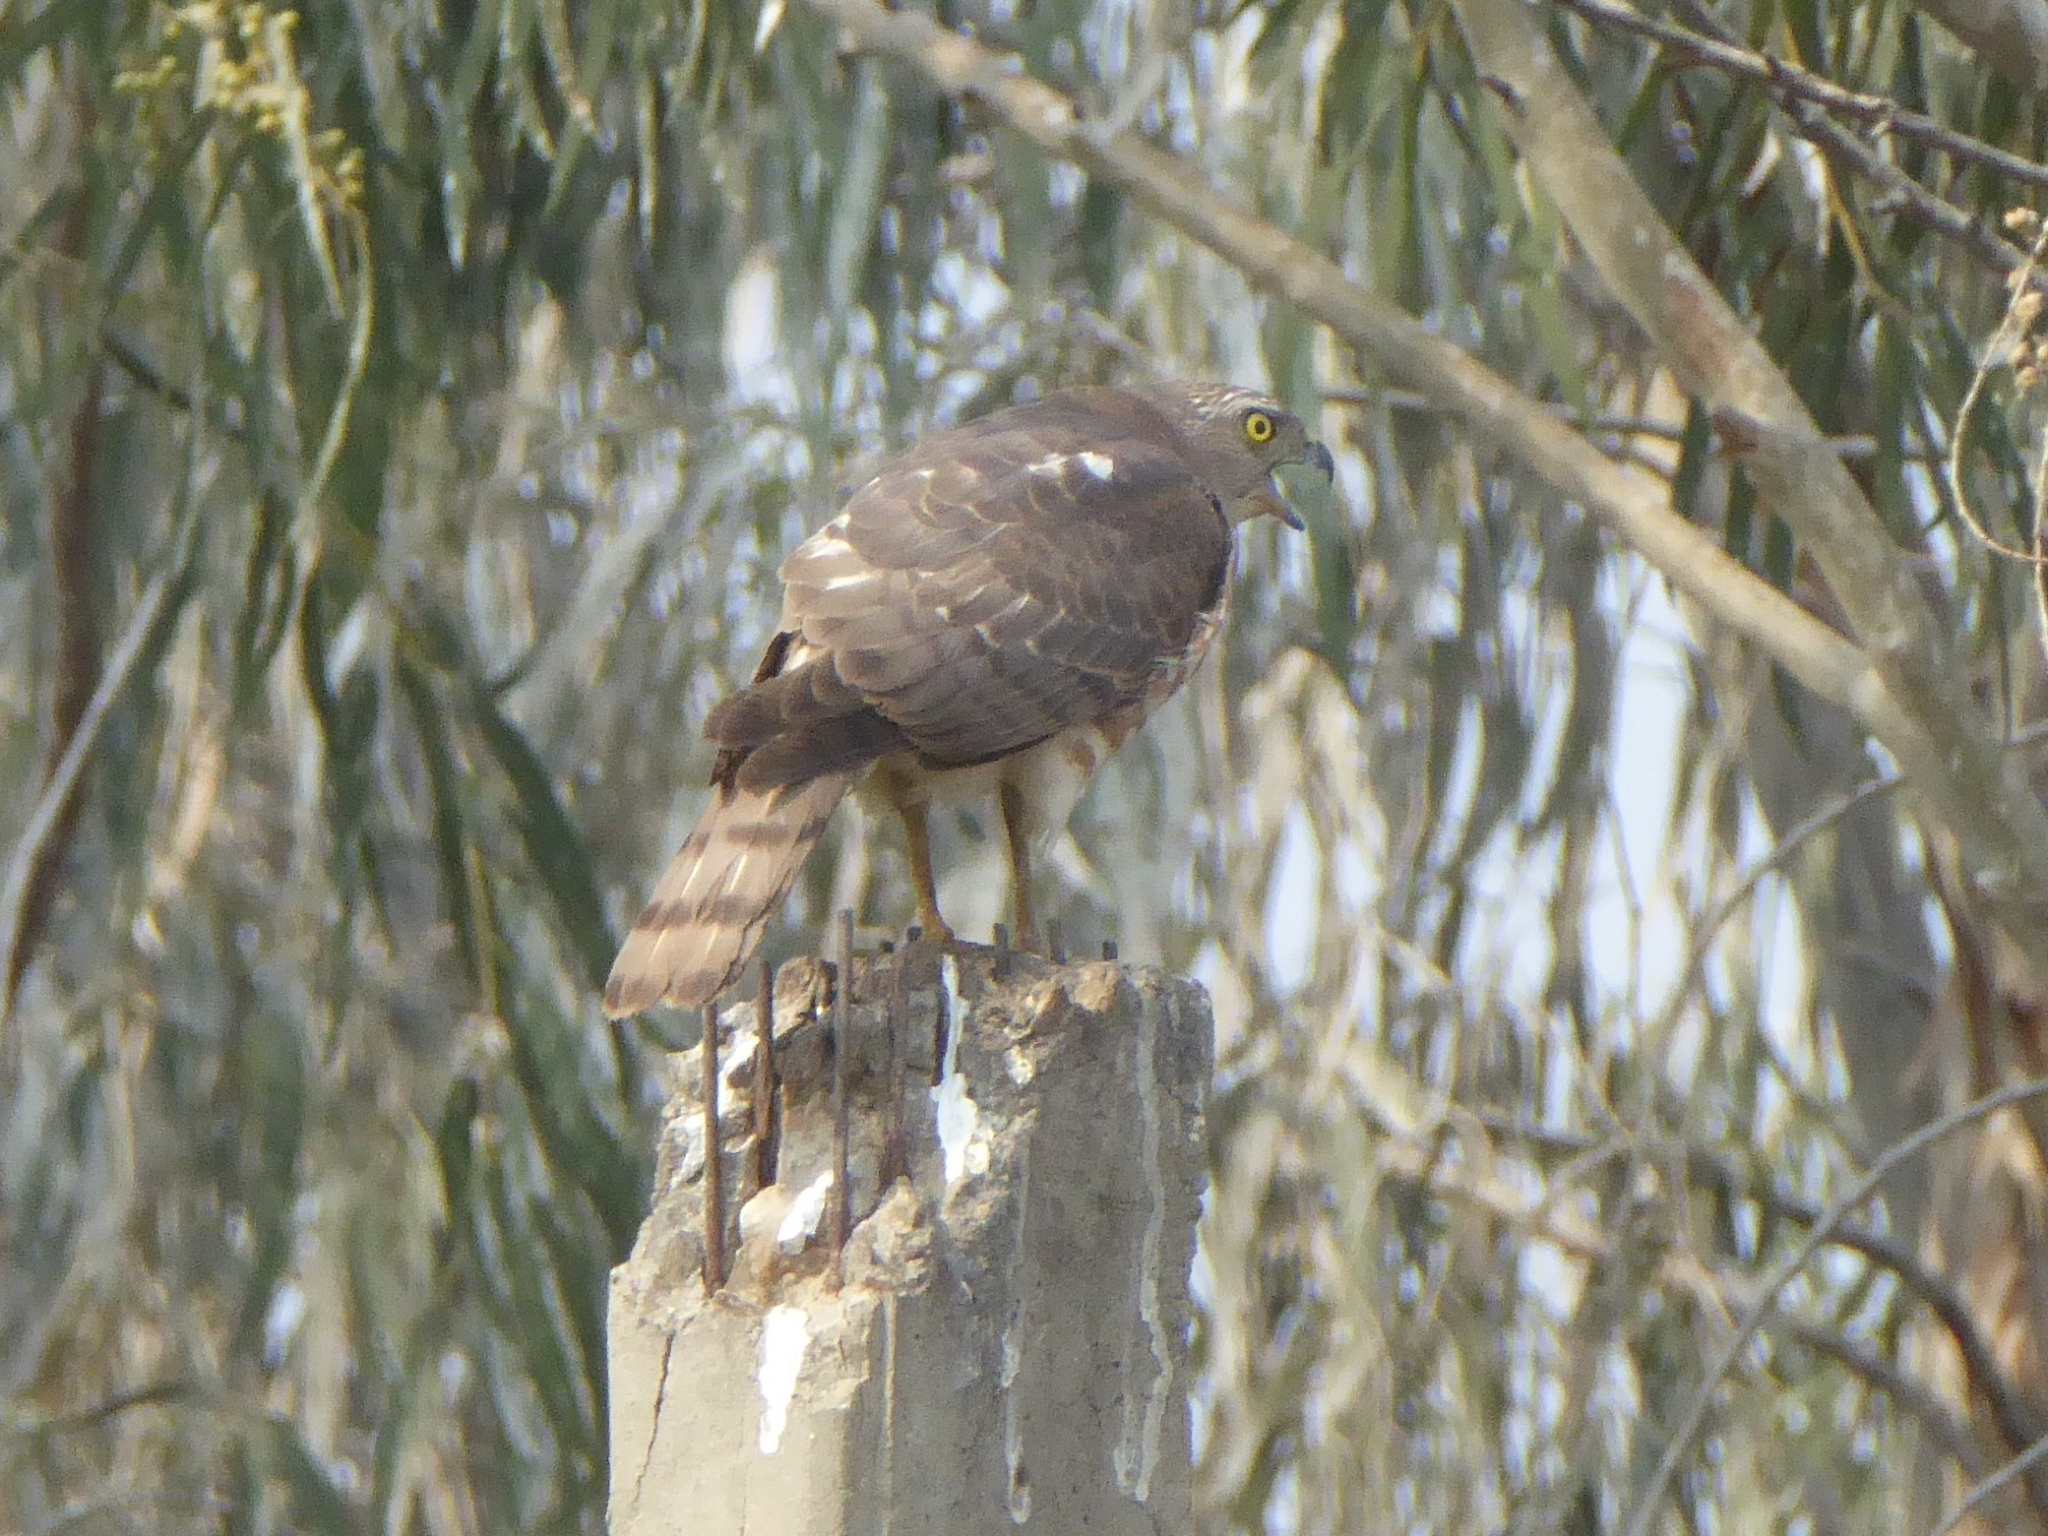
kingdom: Animalia
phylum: Chordata
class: Aves
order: Accipitriformes
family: Accipitridae
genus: Accipiter
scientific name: Accipiter badius
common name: Shikra
